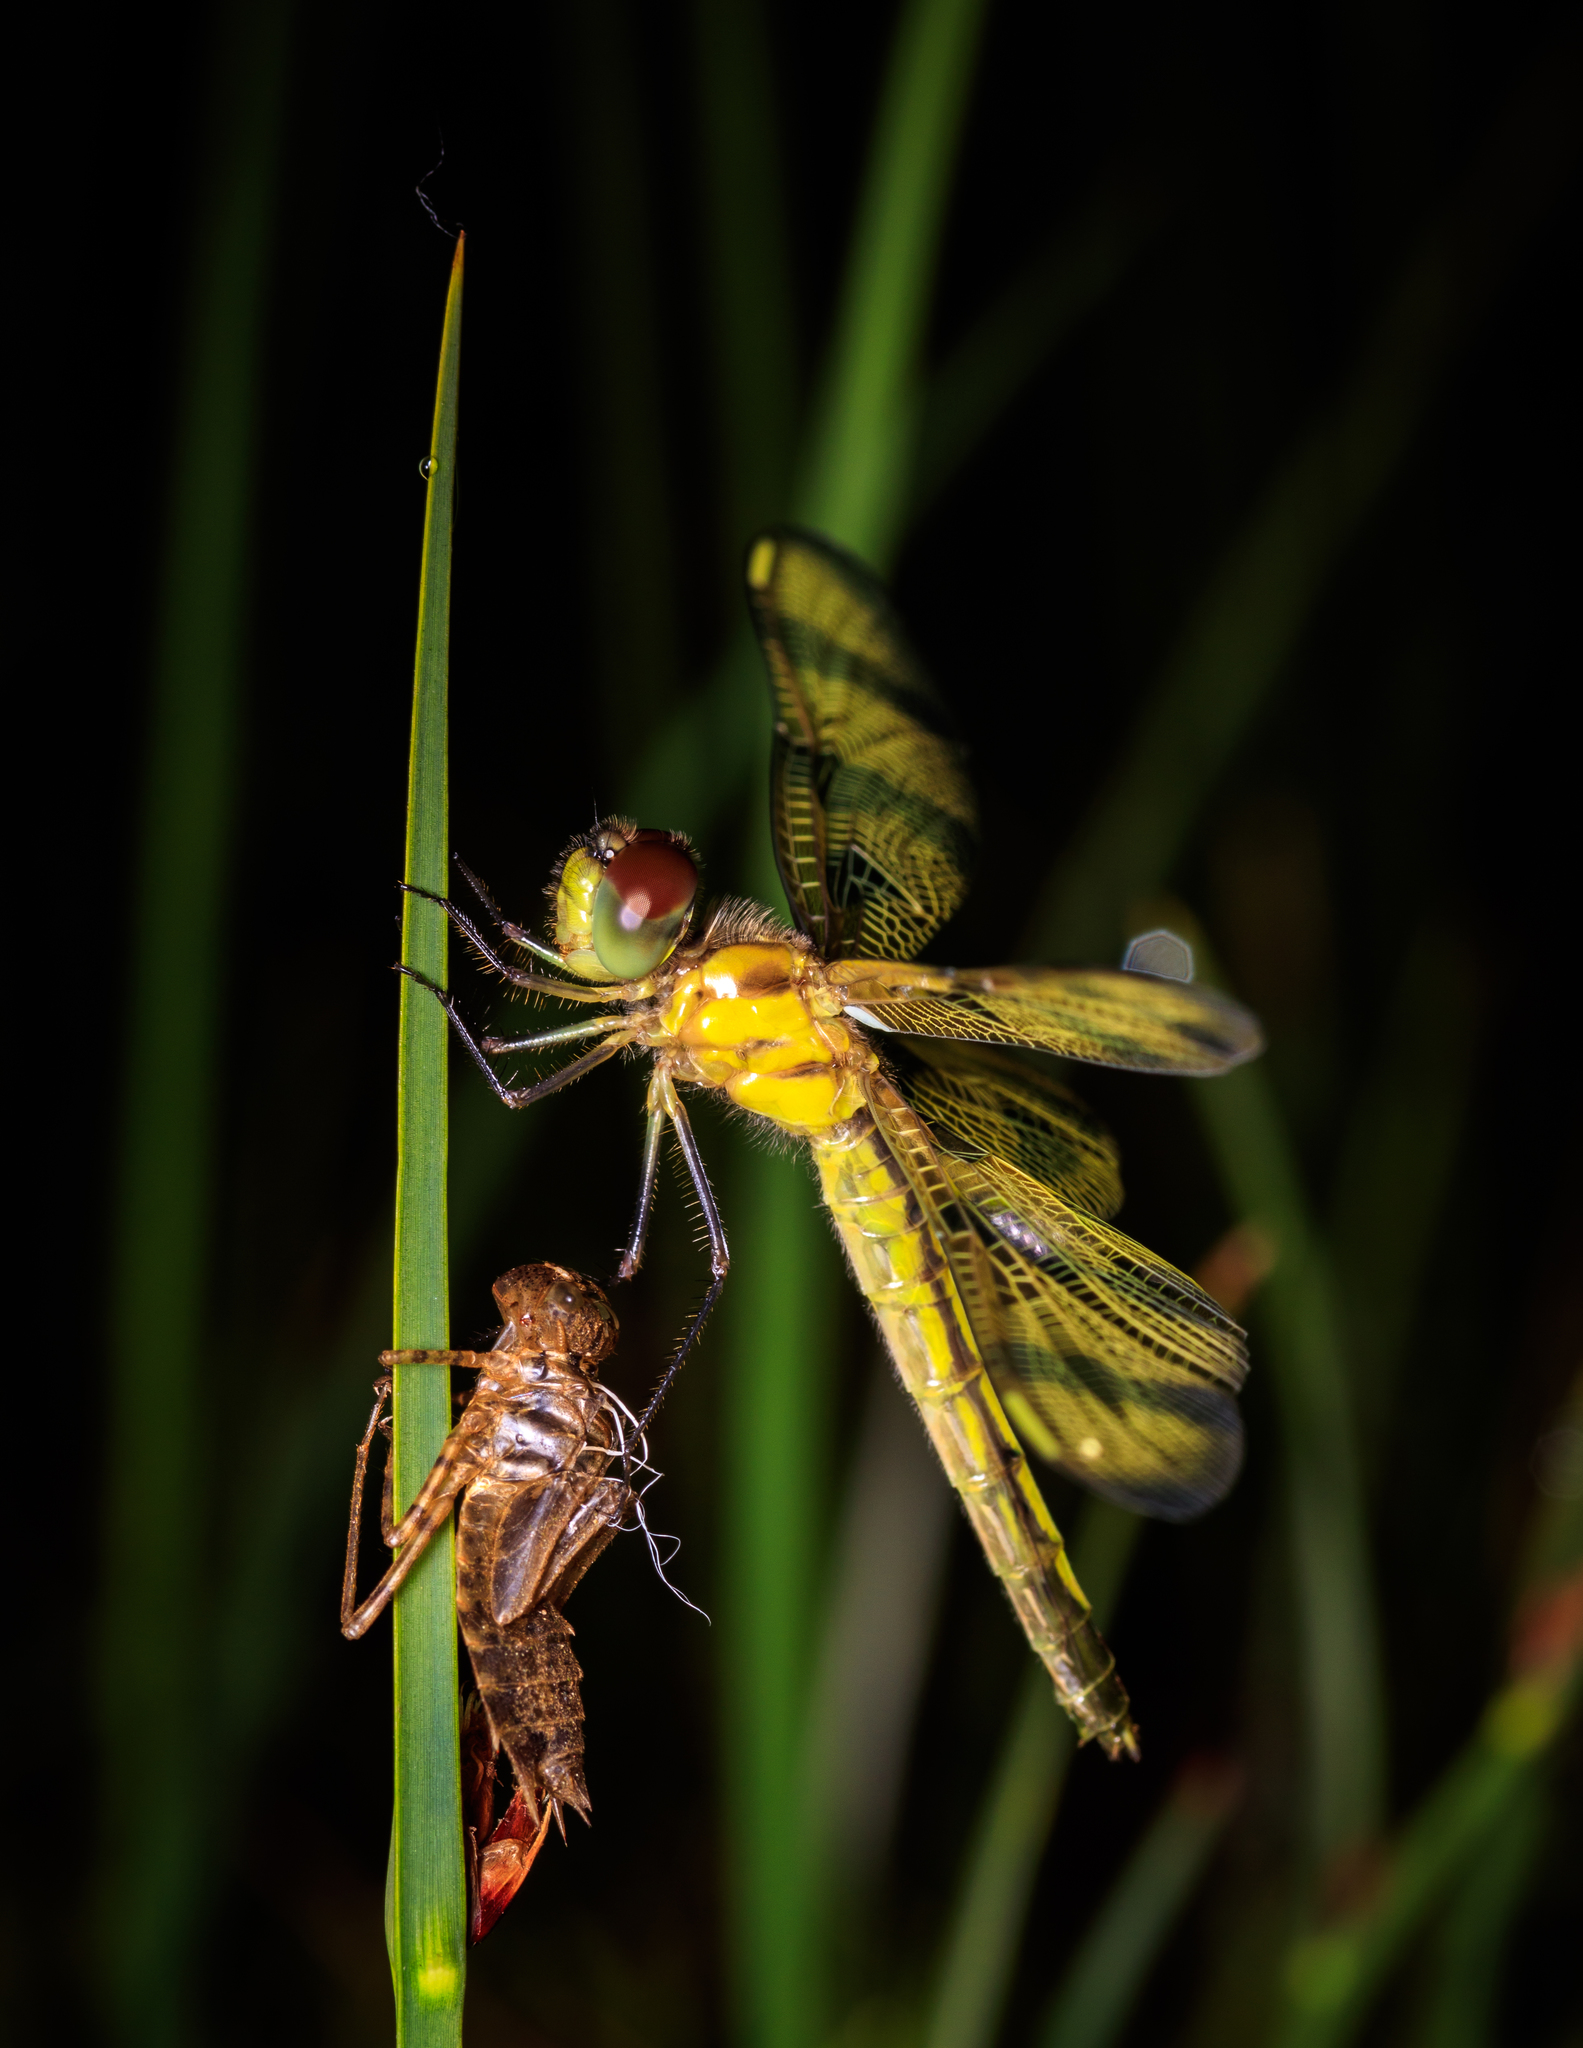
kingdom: Animalia
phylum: Arthropoda
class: Insecta
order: Odonata
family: Libellulidae
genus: Celithemis
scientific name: Celithemis eponina
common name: Halloween pennant
